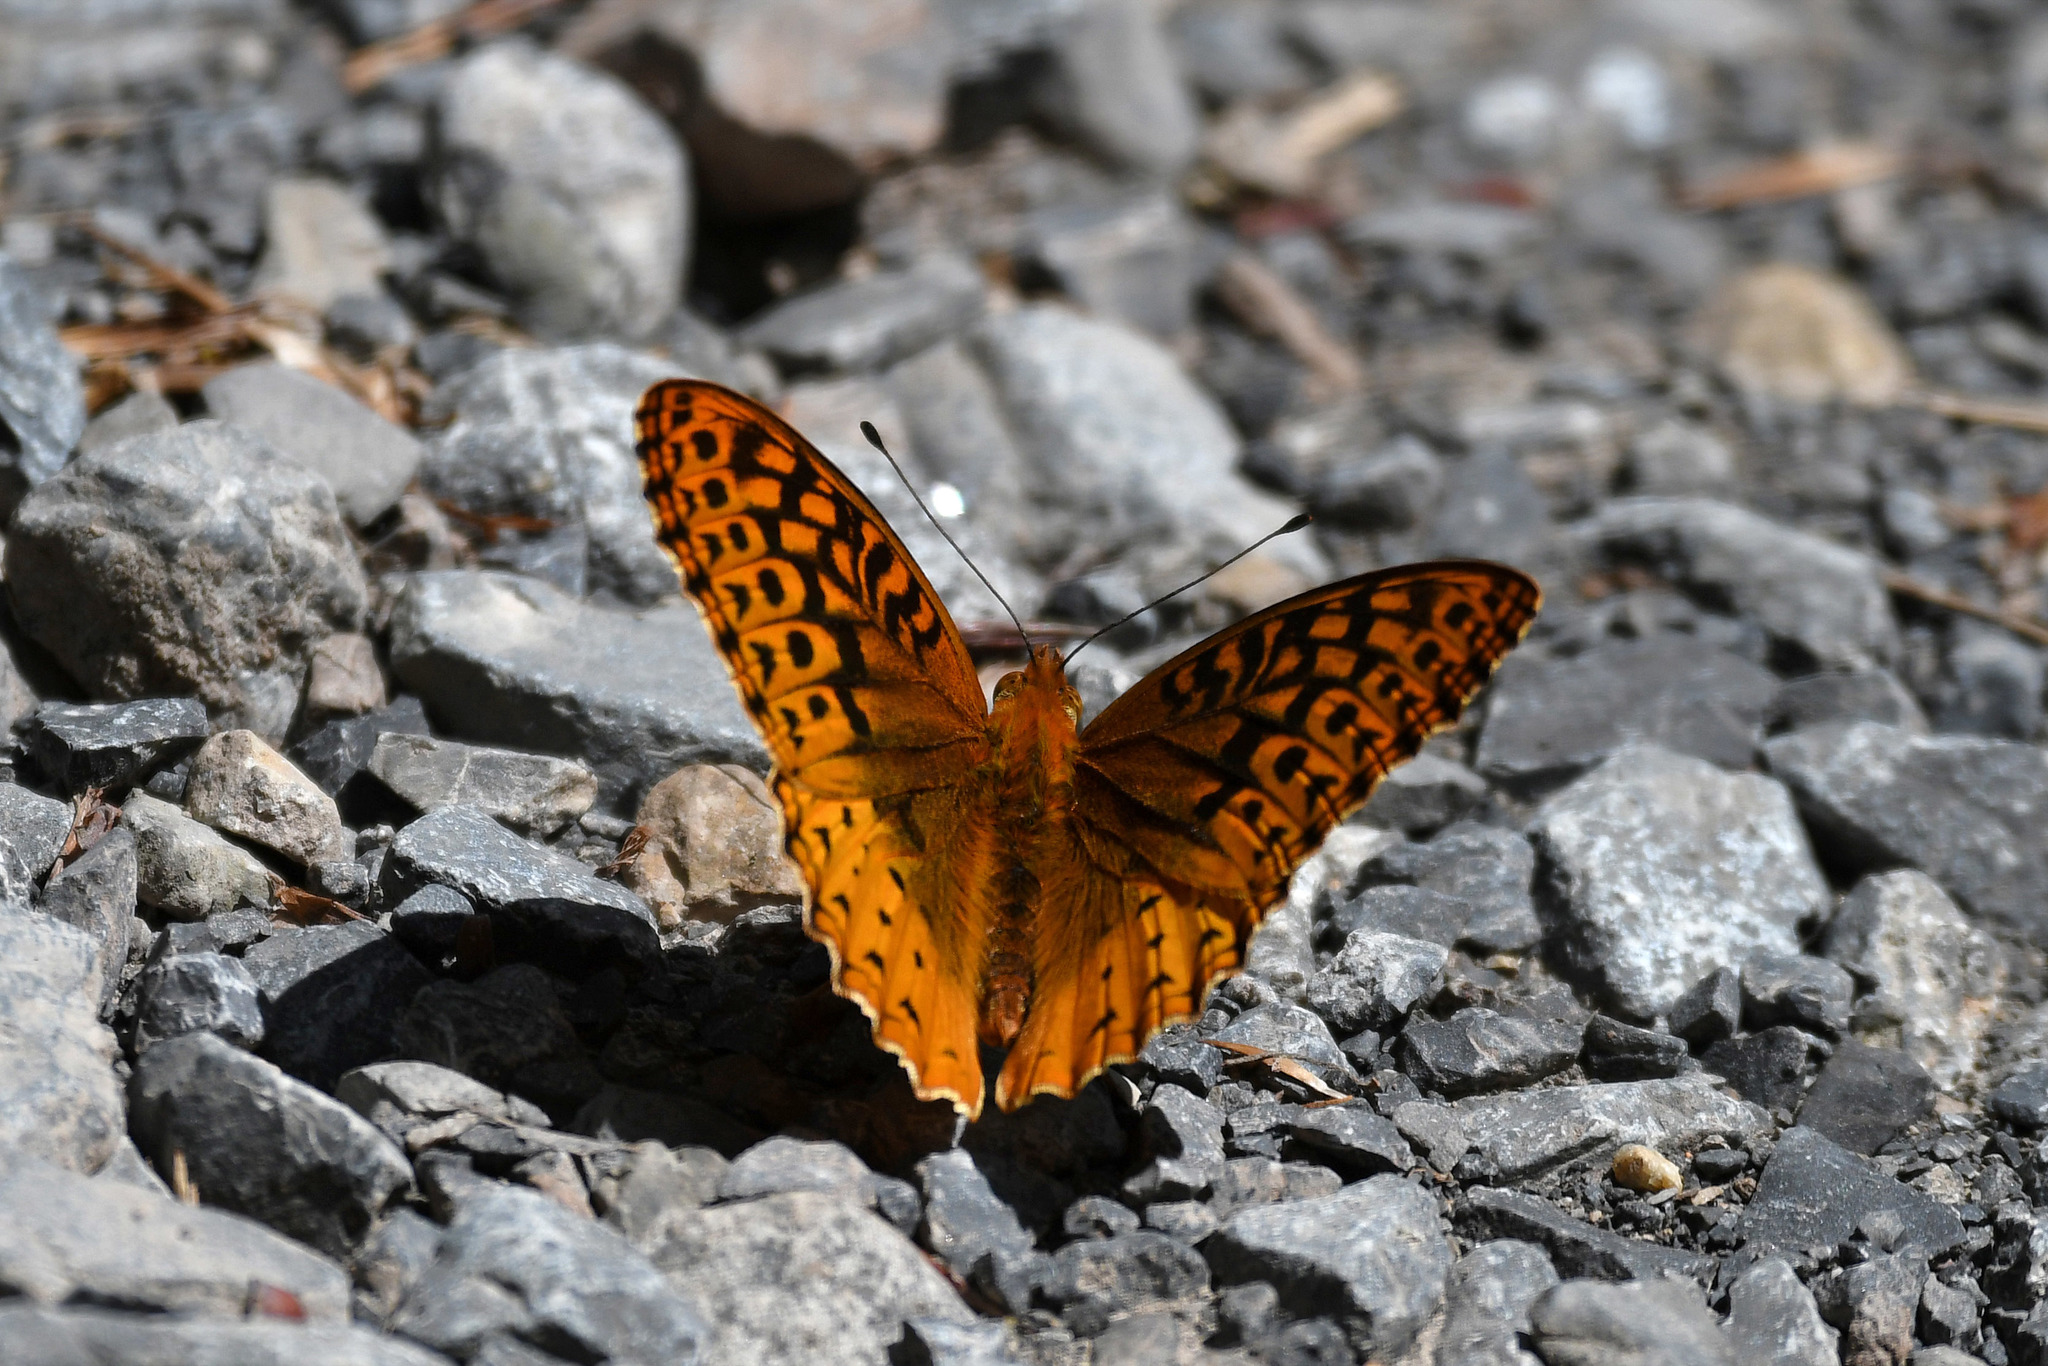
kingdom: Animalia
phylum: Arthropoda
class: Insecta
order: Lepidoptera
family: Nymphalidae
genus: Speyeria
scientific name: Speyeria cybele
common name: Great spangled fritillary
